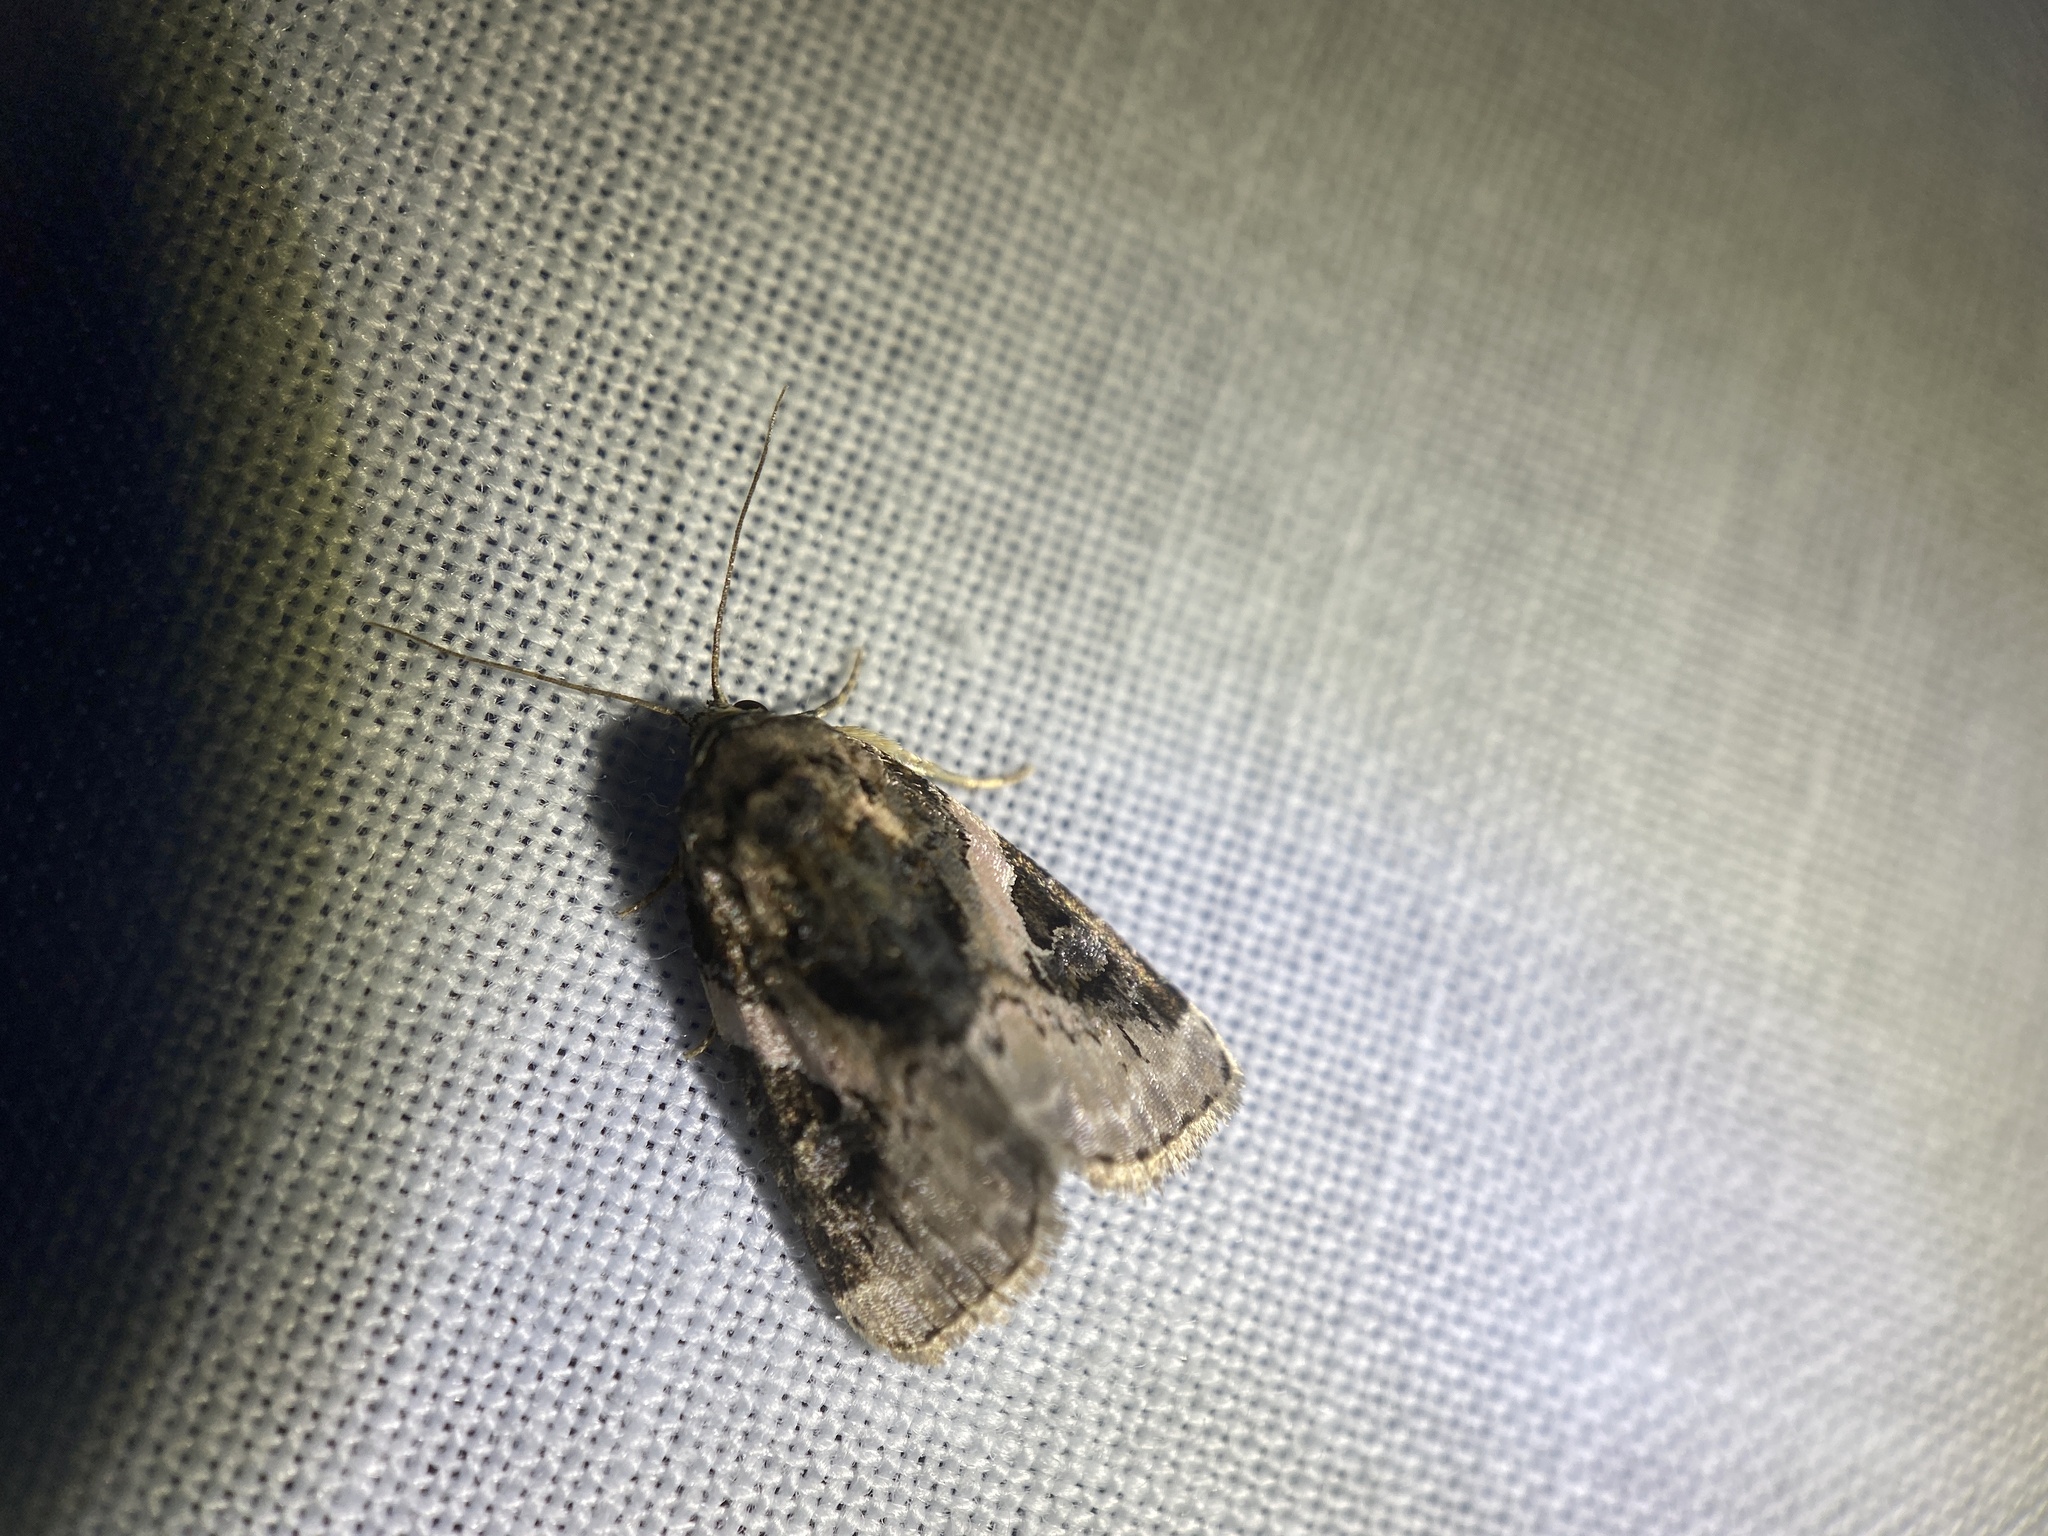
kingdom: Animalia
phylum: Arthropoda
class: Insecta
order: Lepidoptera
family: Noctuidae
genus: Pseudeustrotia
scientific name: Pseudeustrotia carneola
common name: Pink-barred lithacodia moth
